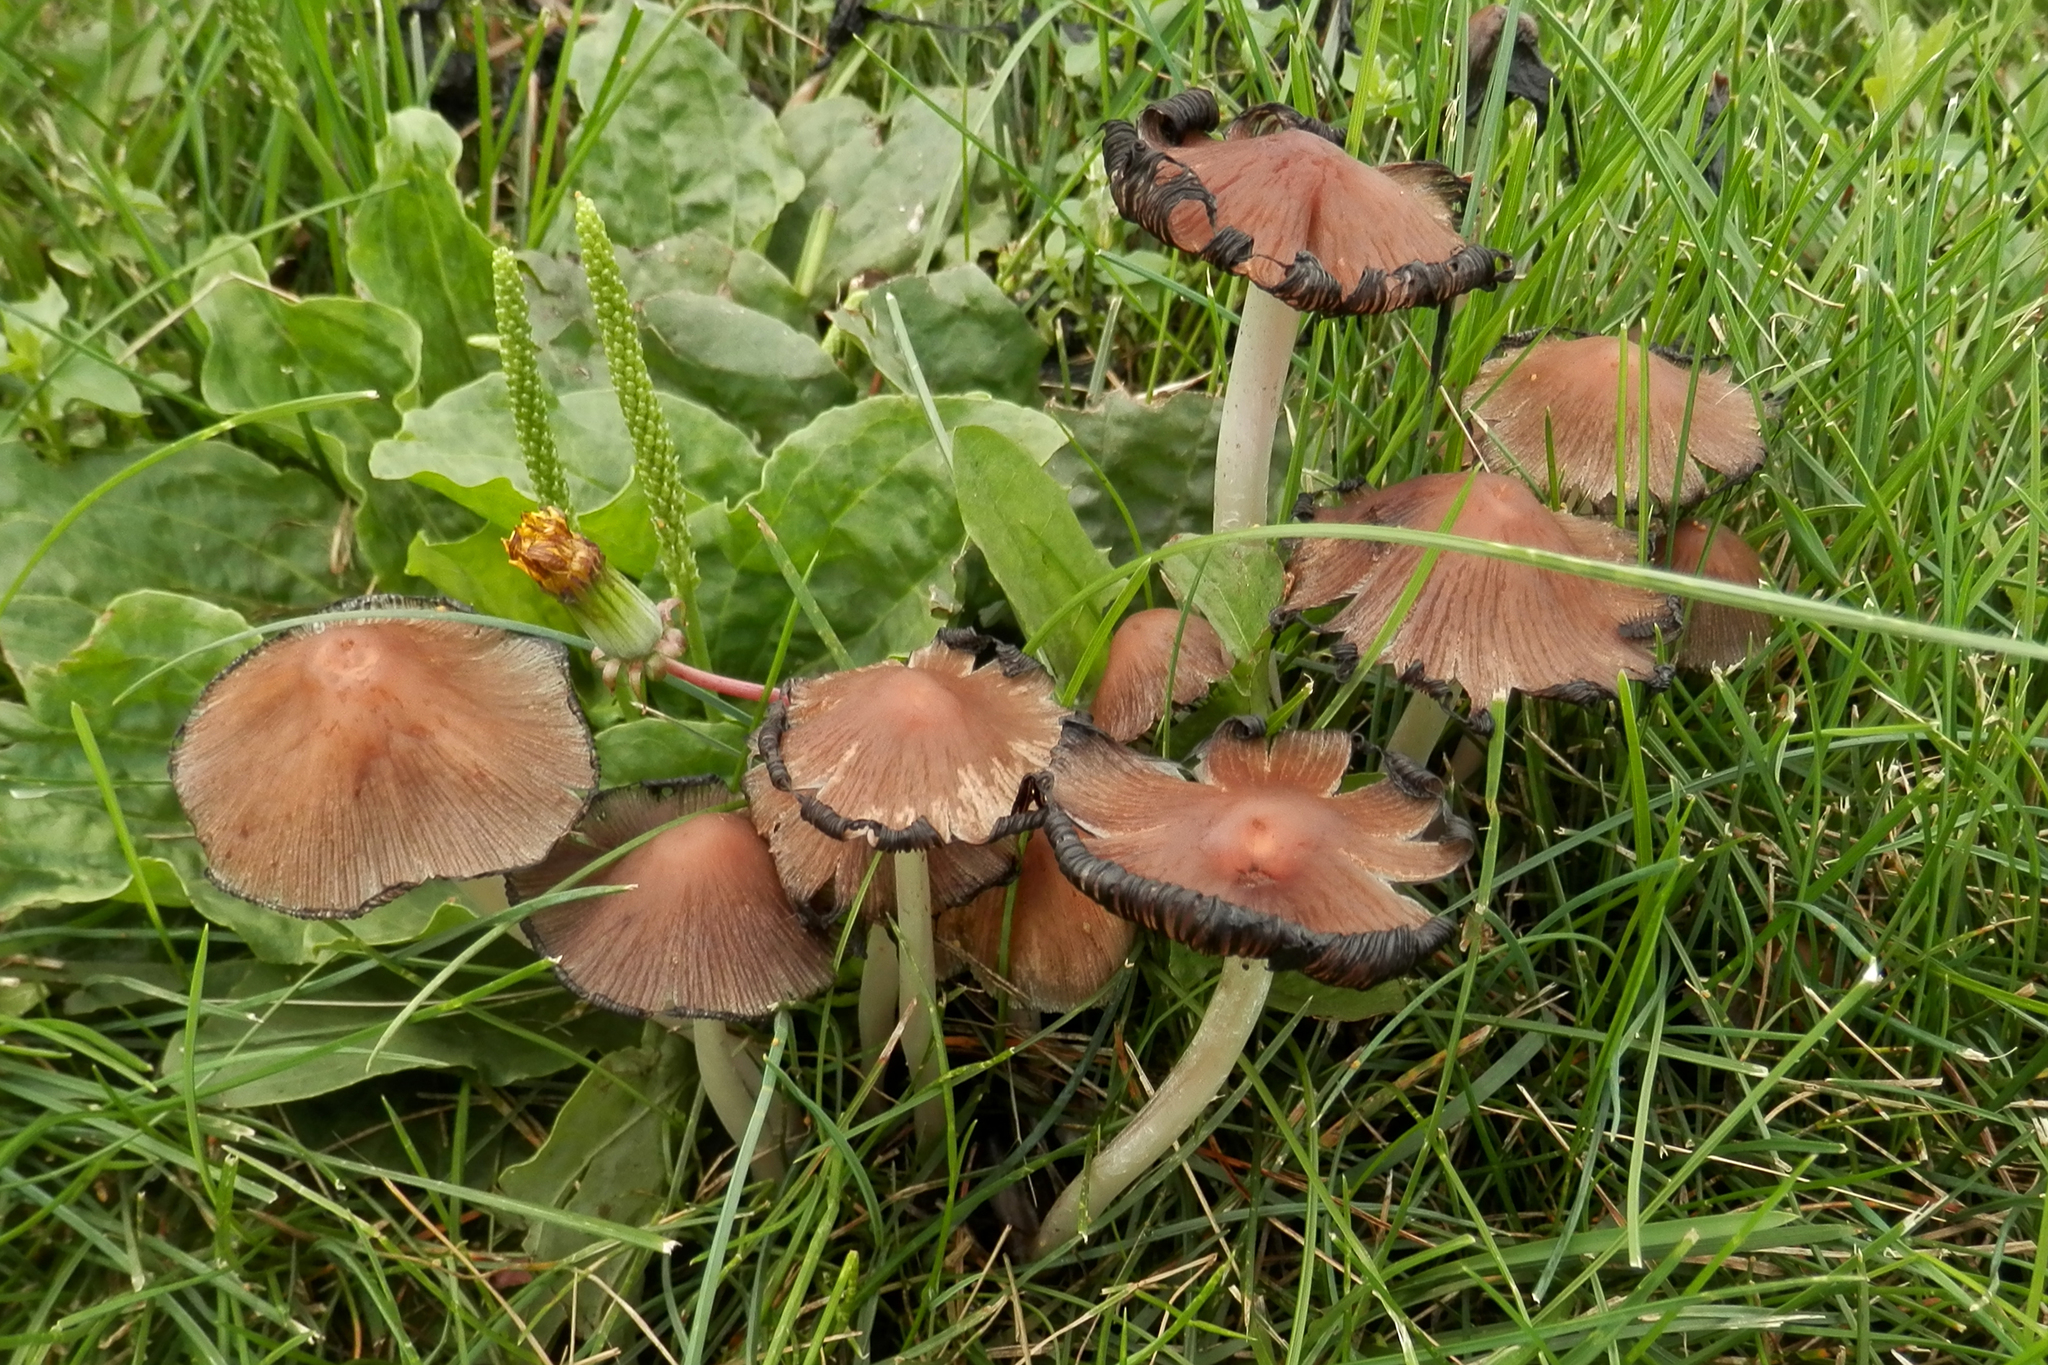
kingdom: Plantae
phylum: Tracheophyta
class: Magnoliopsida
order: Lamiales
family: Plantaginaceae
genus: Plantago
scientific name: Plantago major
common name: Common plantain
